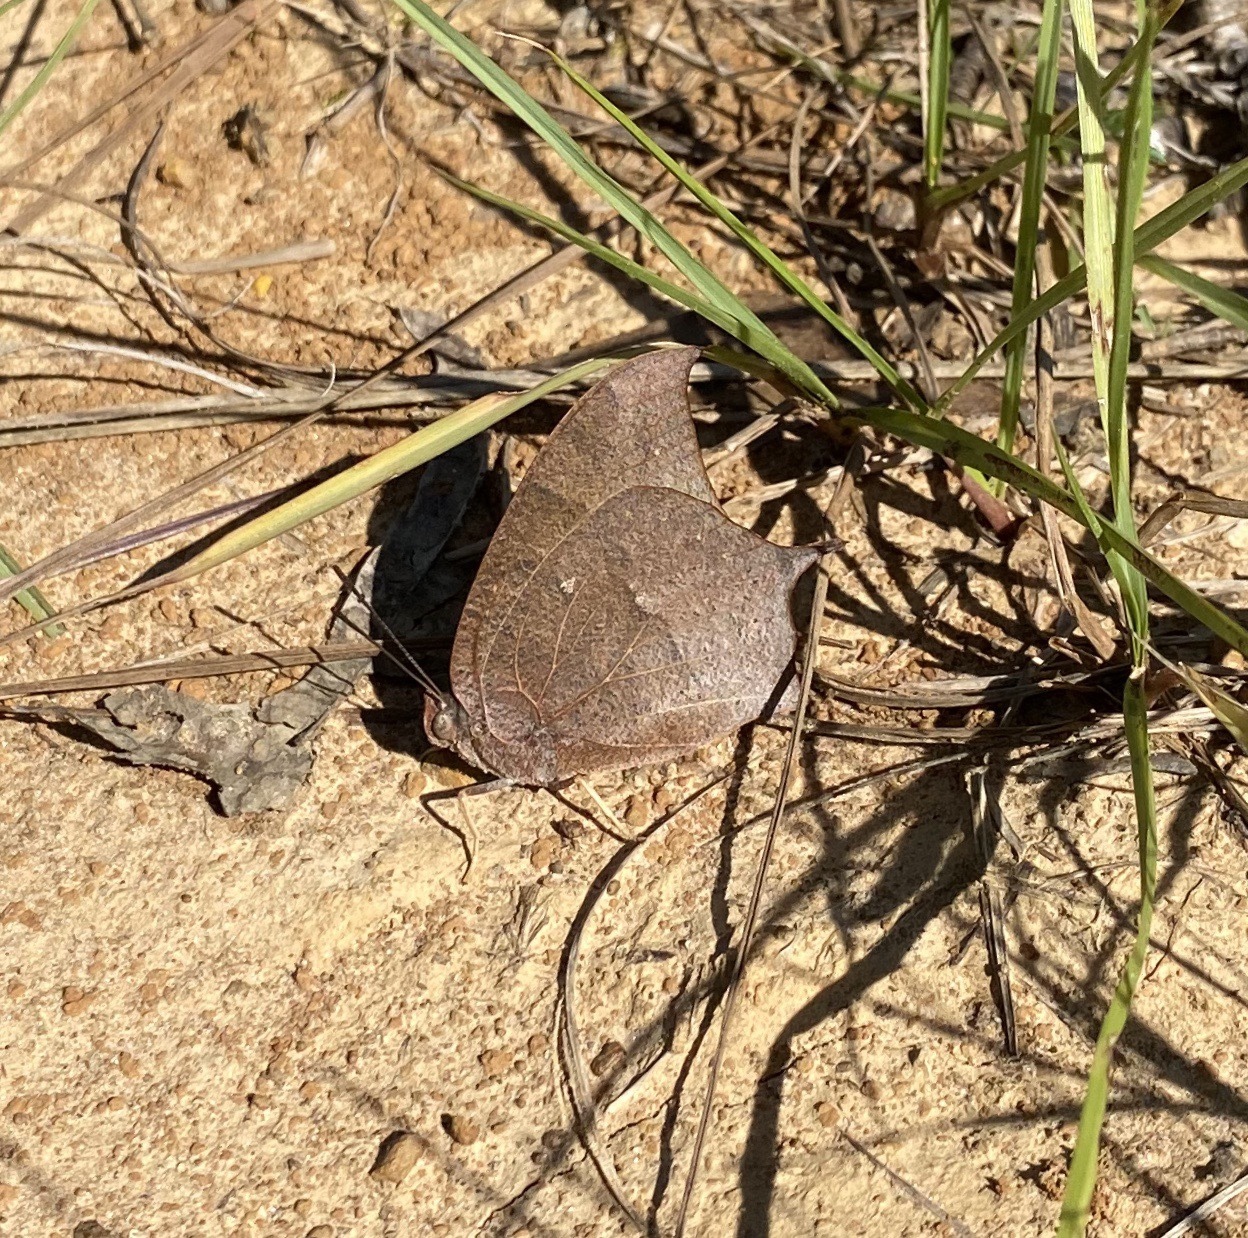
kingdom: Animalia
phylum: Arthropoda
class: Insecta
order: Lepidoptera
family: Nymphalidae
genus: Anaea
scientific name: Anaea andria
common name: Goatweed leafwing
